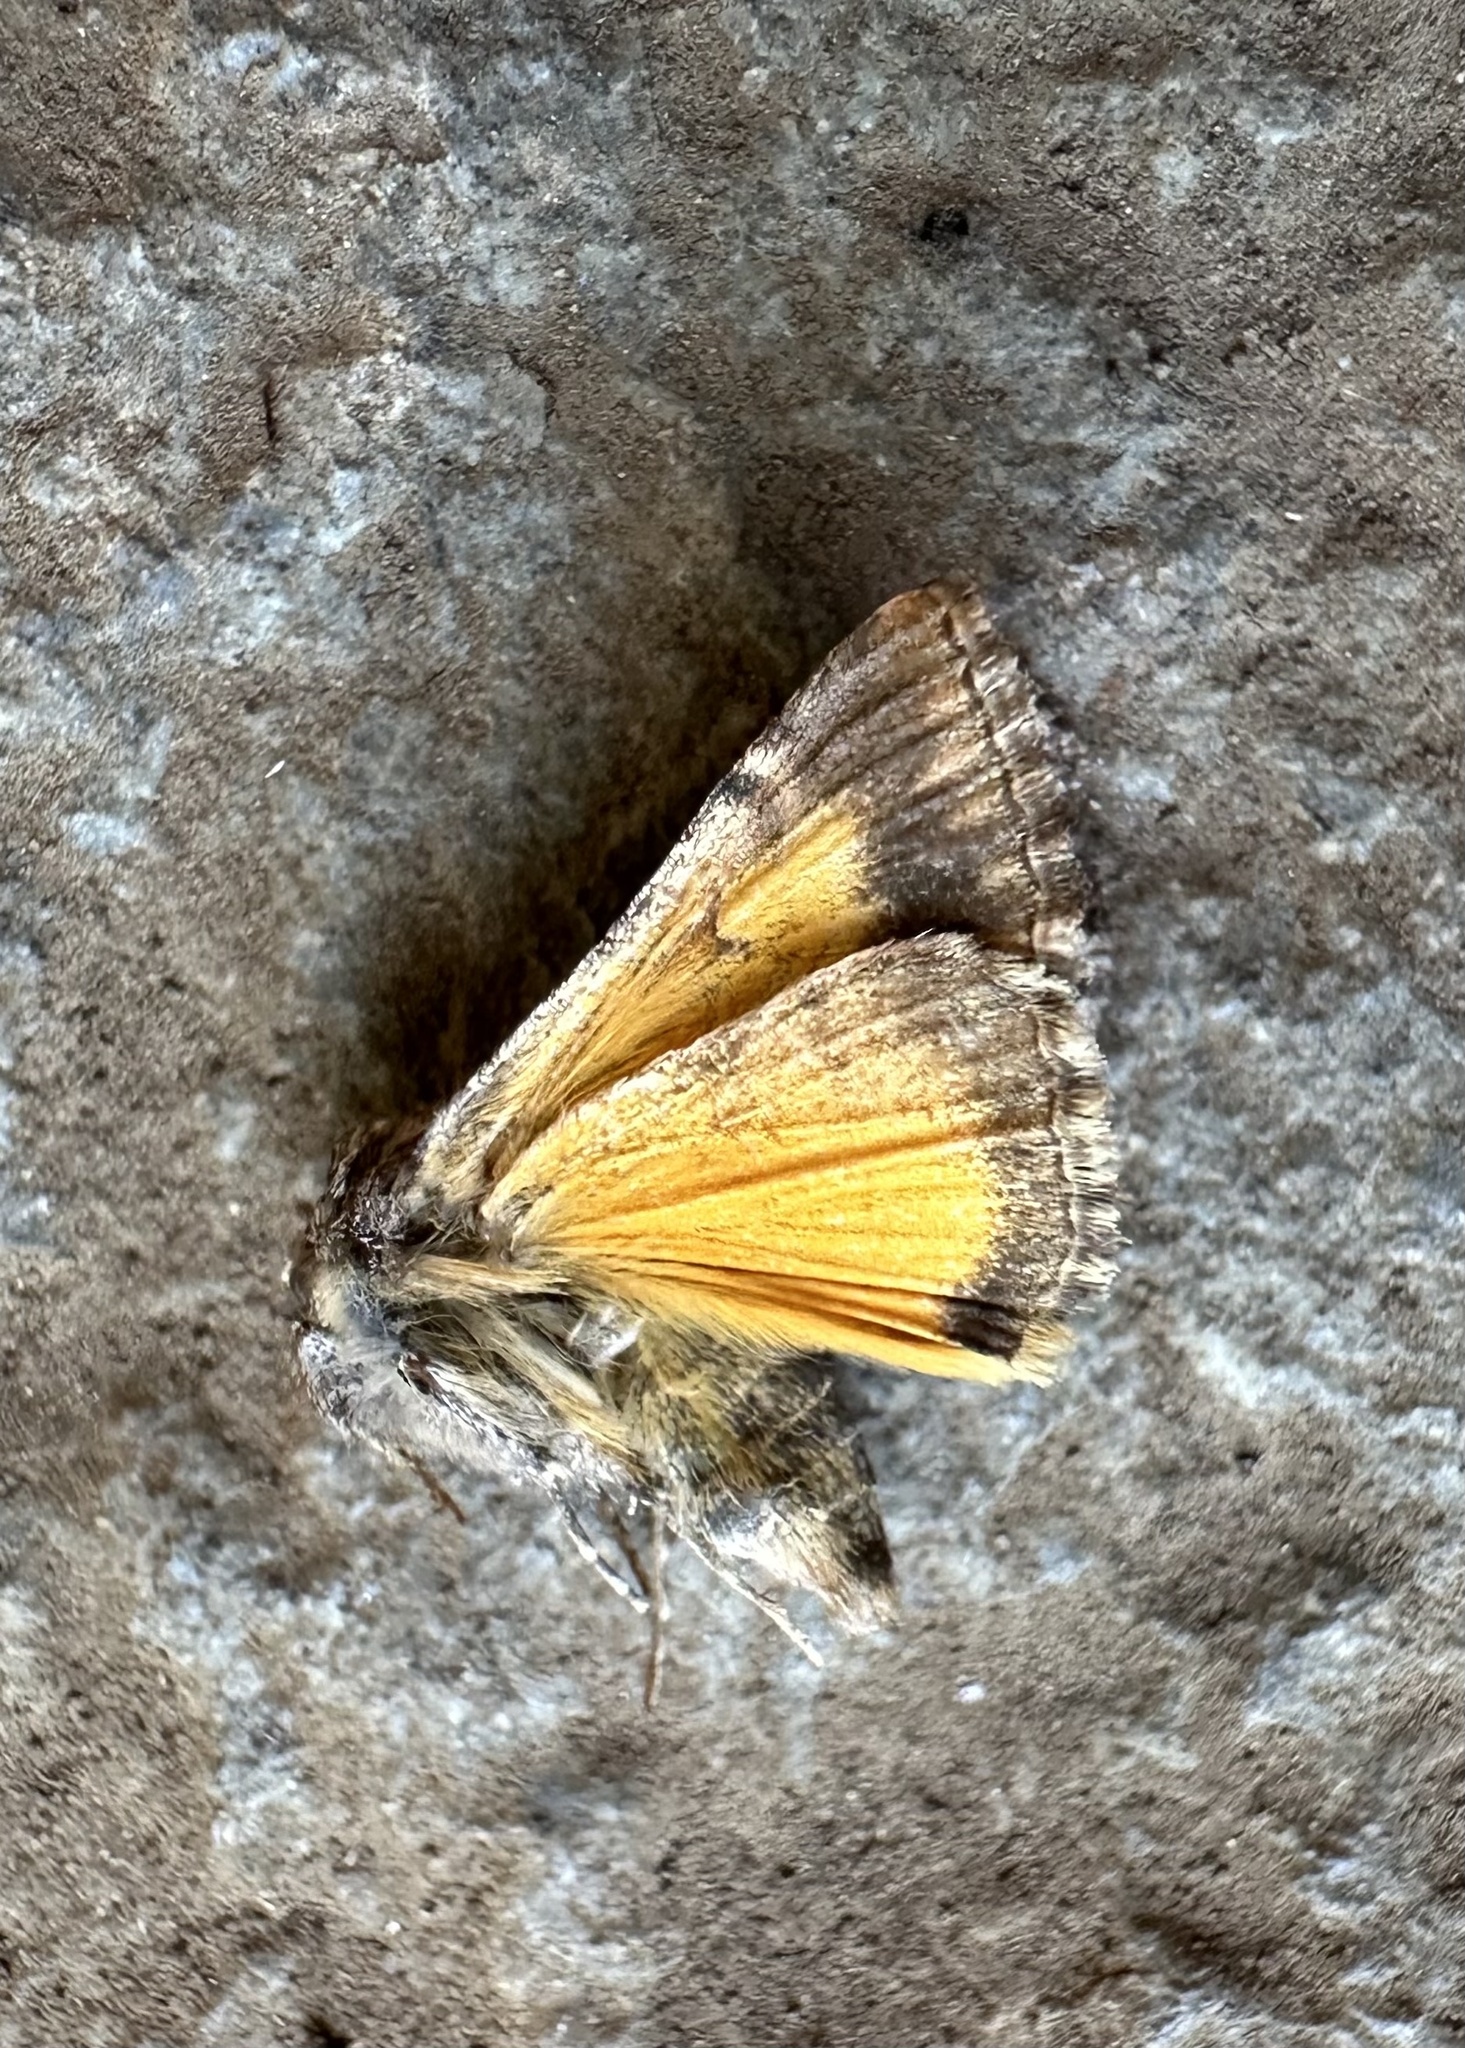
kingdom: Animalia
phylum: Arthropoda
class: Insecta
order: Lepidoptera
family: Noctuidae
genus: Rachiplusia
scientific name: Rachiplusia virgula
